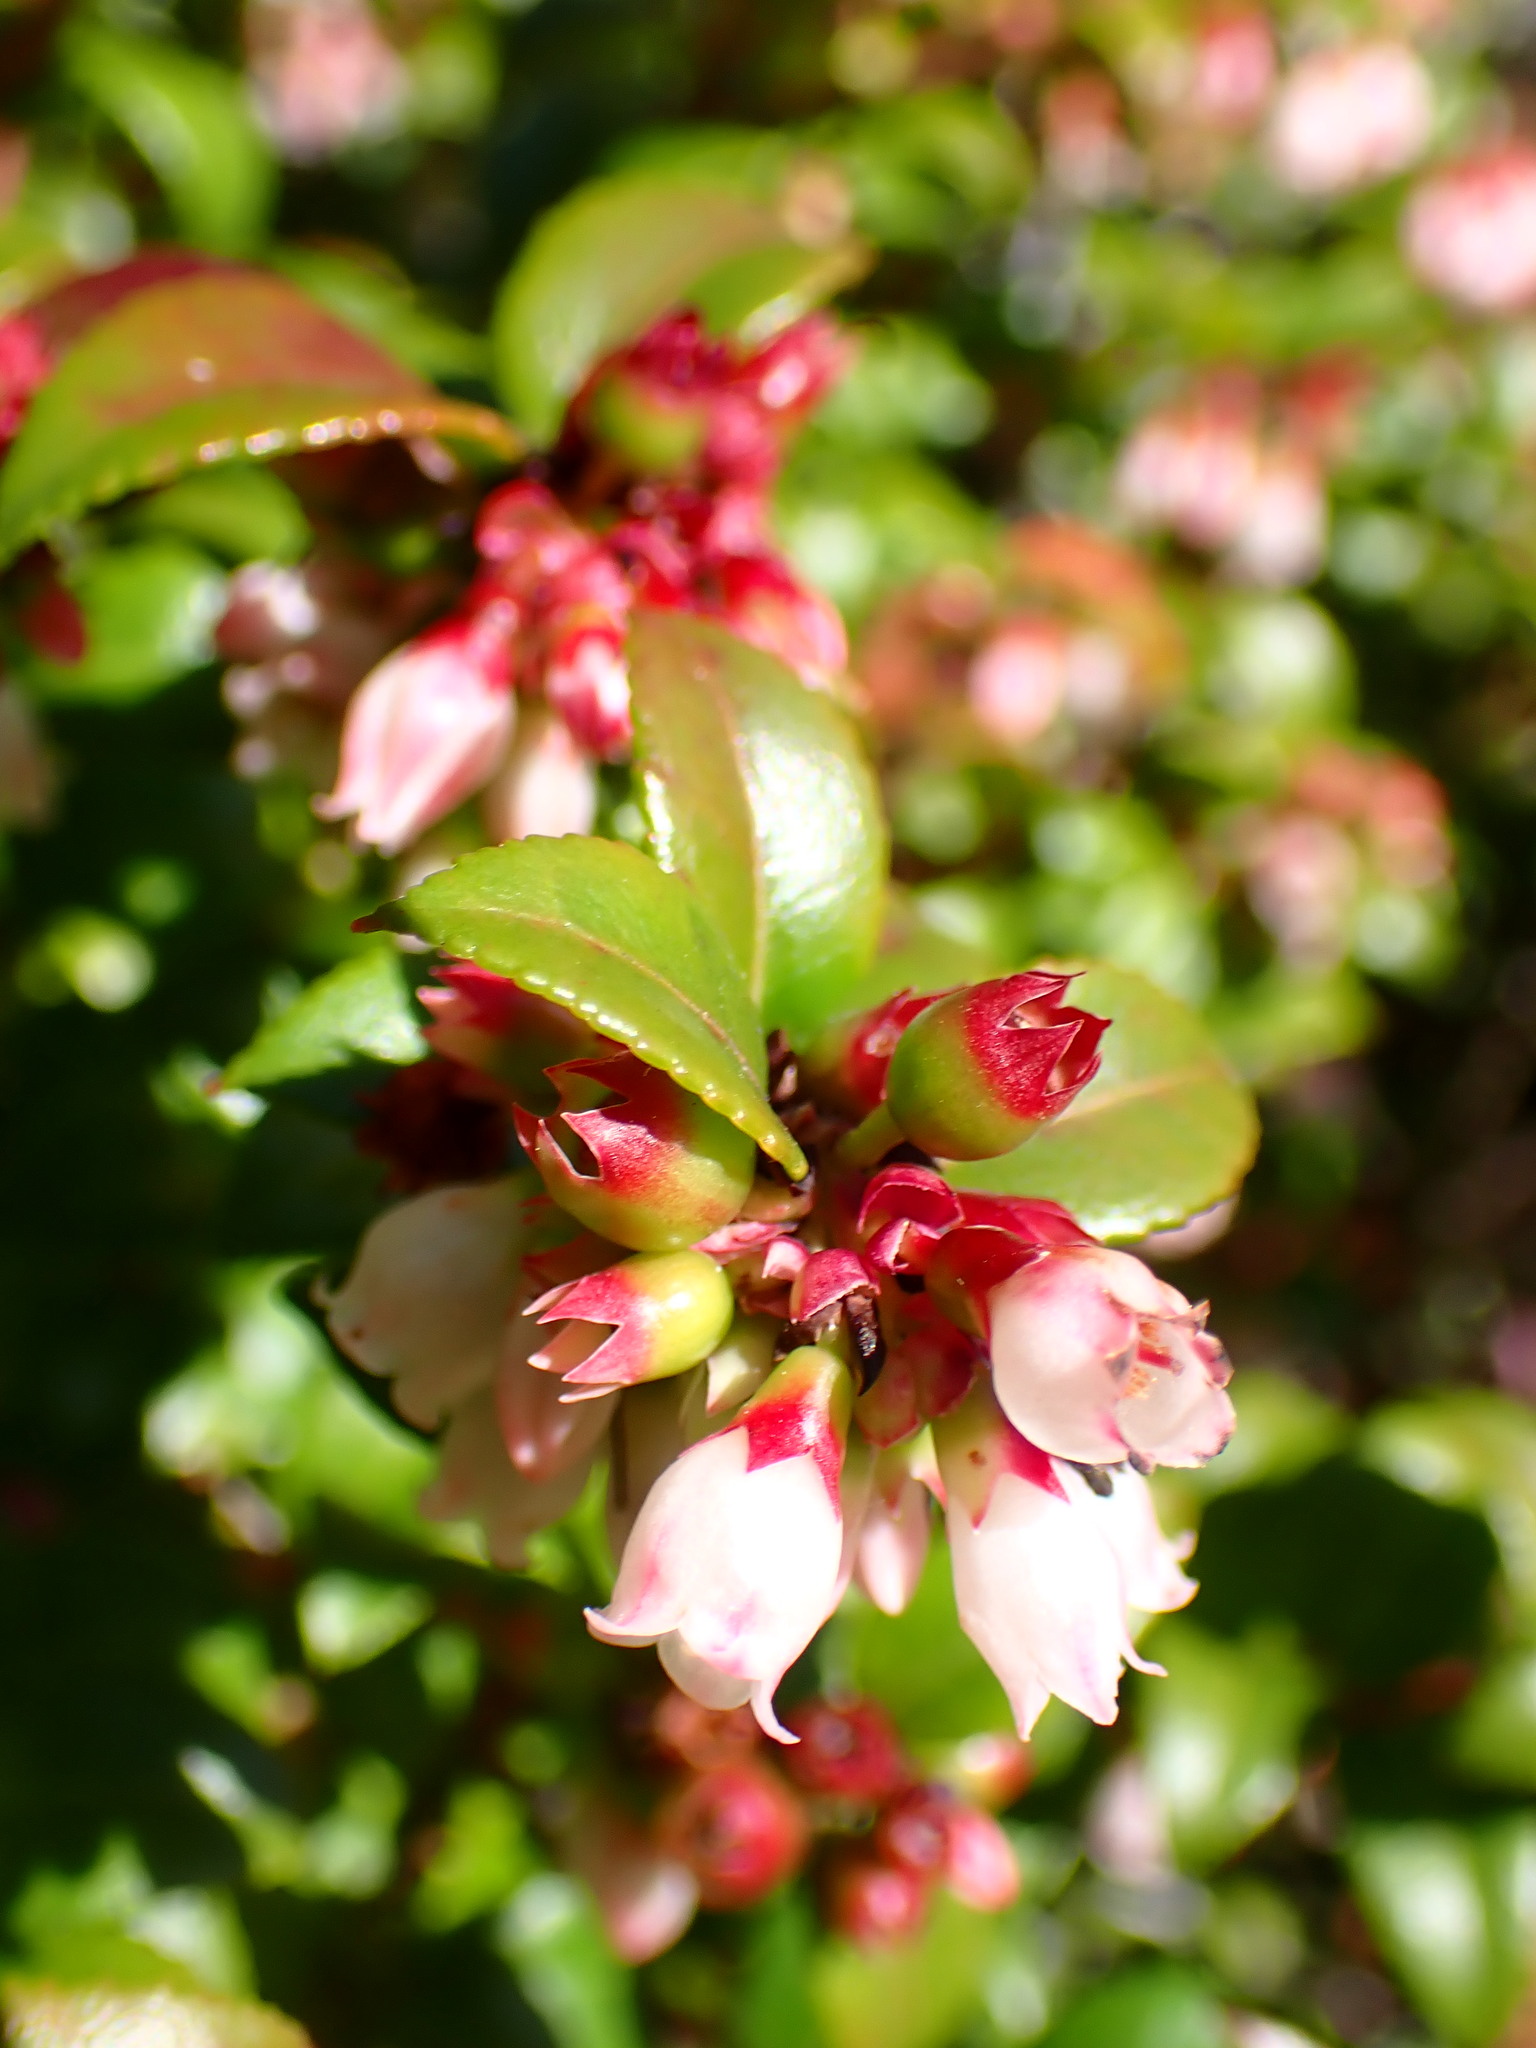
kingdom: Plantae
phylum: Tracheophyta
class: Magnoliopsida
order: Ericales
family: Ericaceae
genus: Vaccinium
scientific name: Vaccinium ovatum
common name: California-huckleberry
